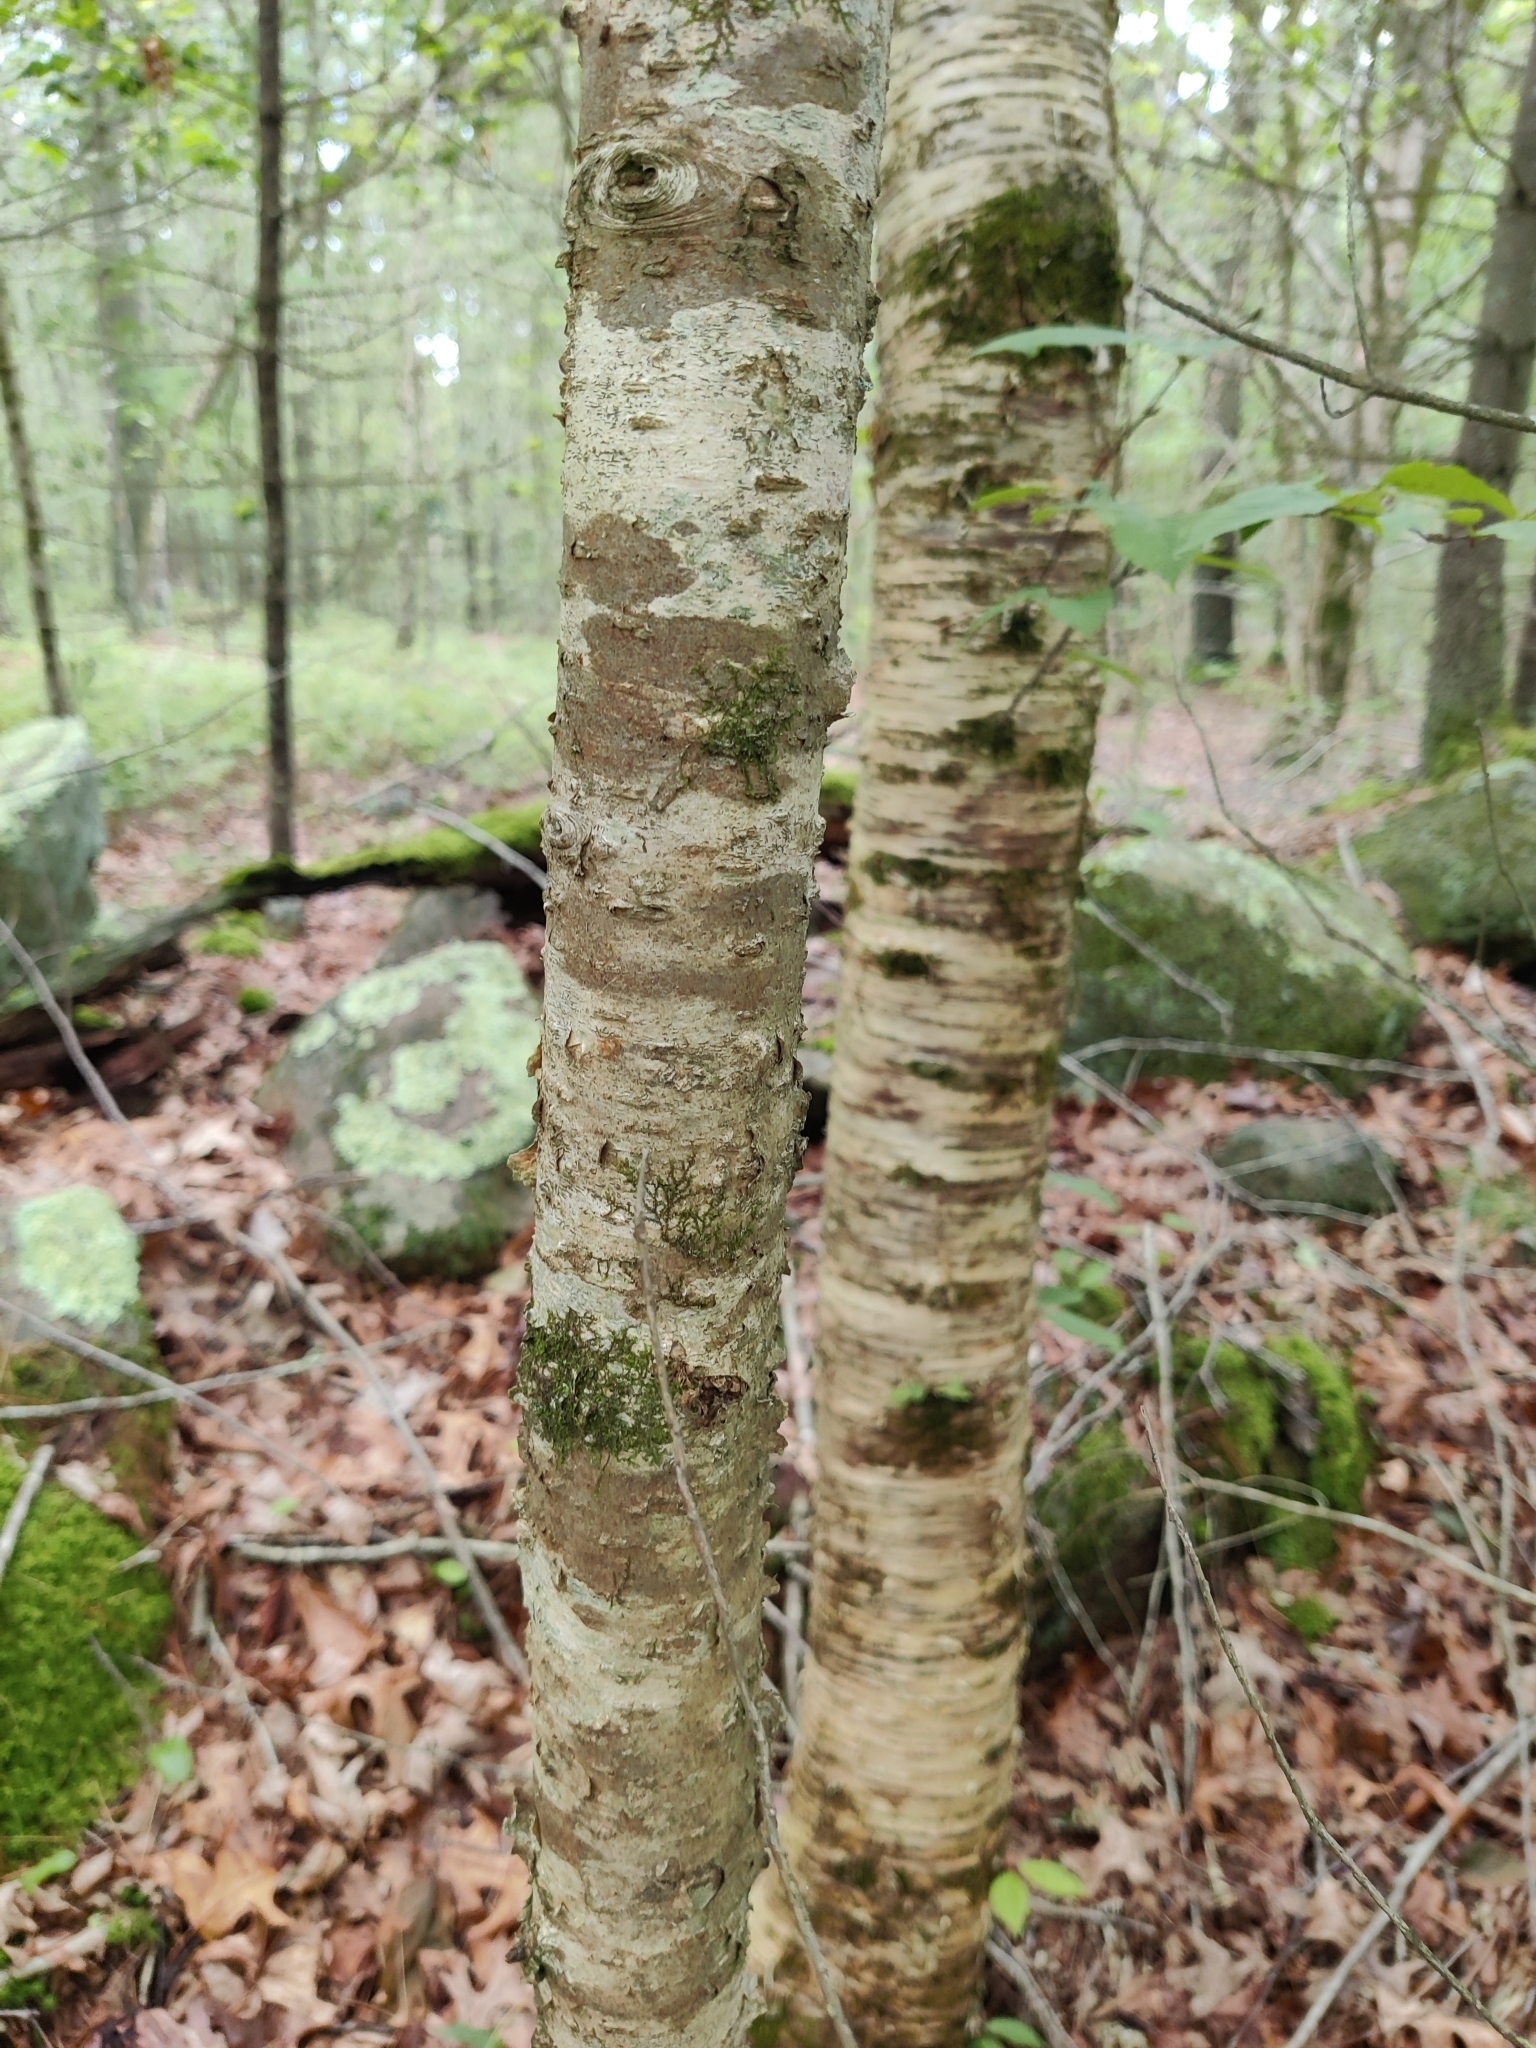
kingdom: Animalia
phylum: Arthropoda
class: Insecta
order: Hemiptera
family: Aphididae
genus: Hamamelistes
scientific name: Hamamelistes spinosus
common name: Witch hazel gall aphid
